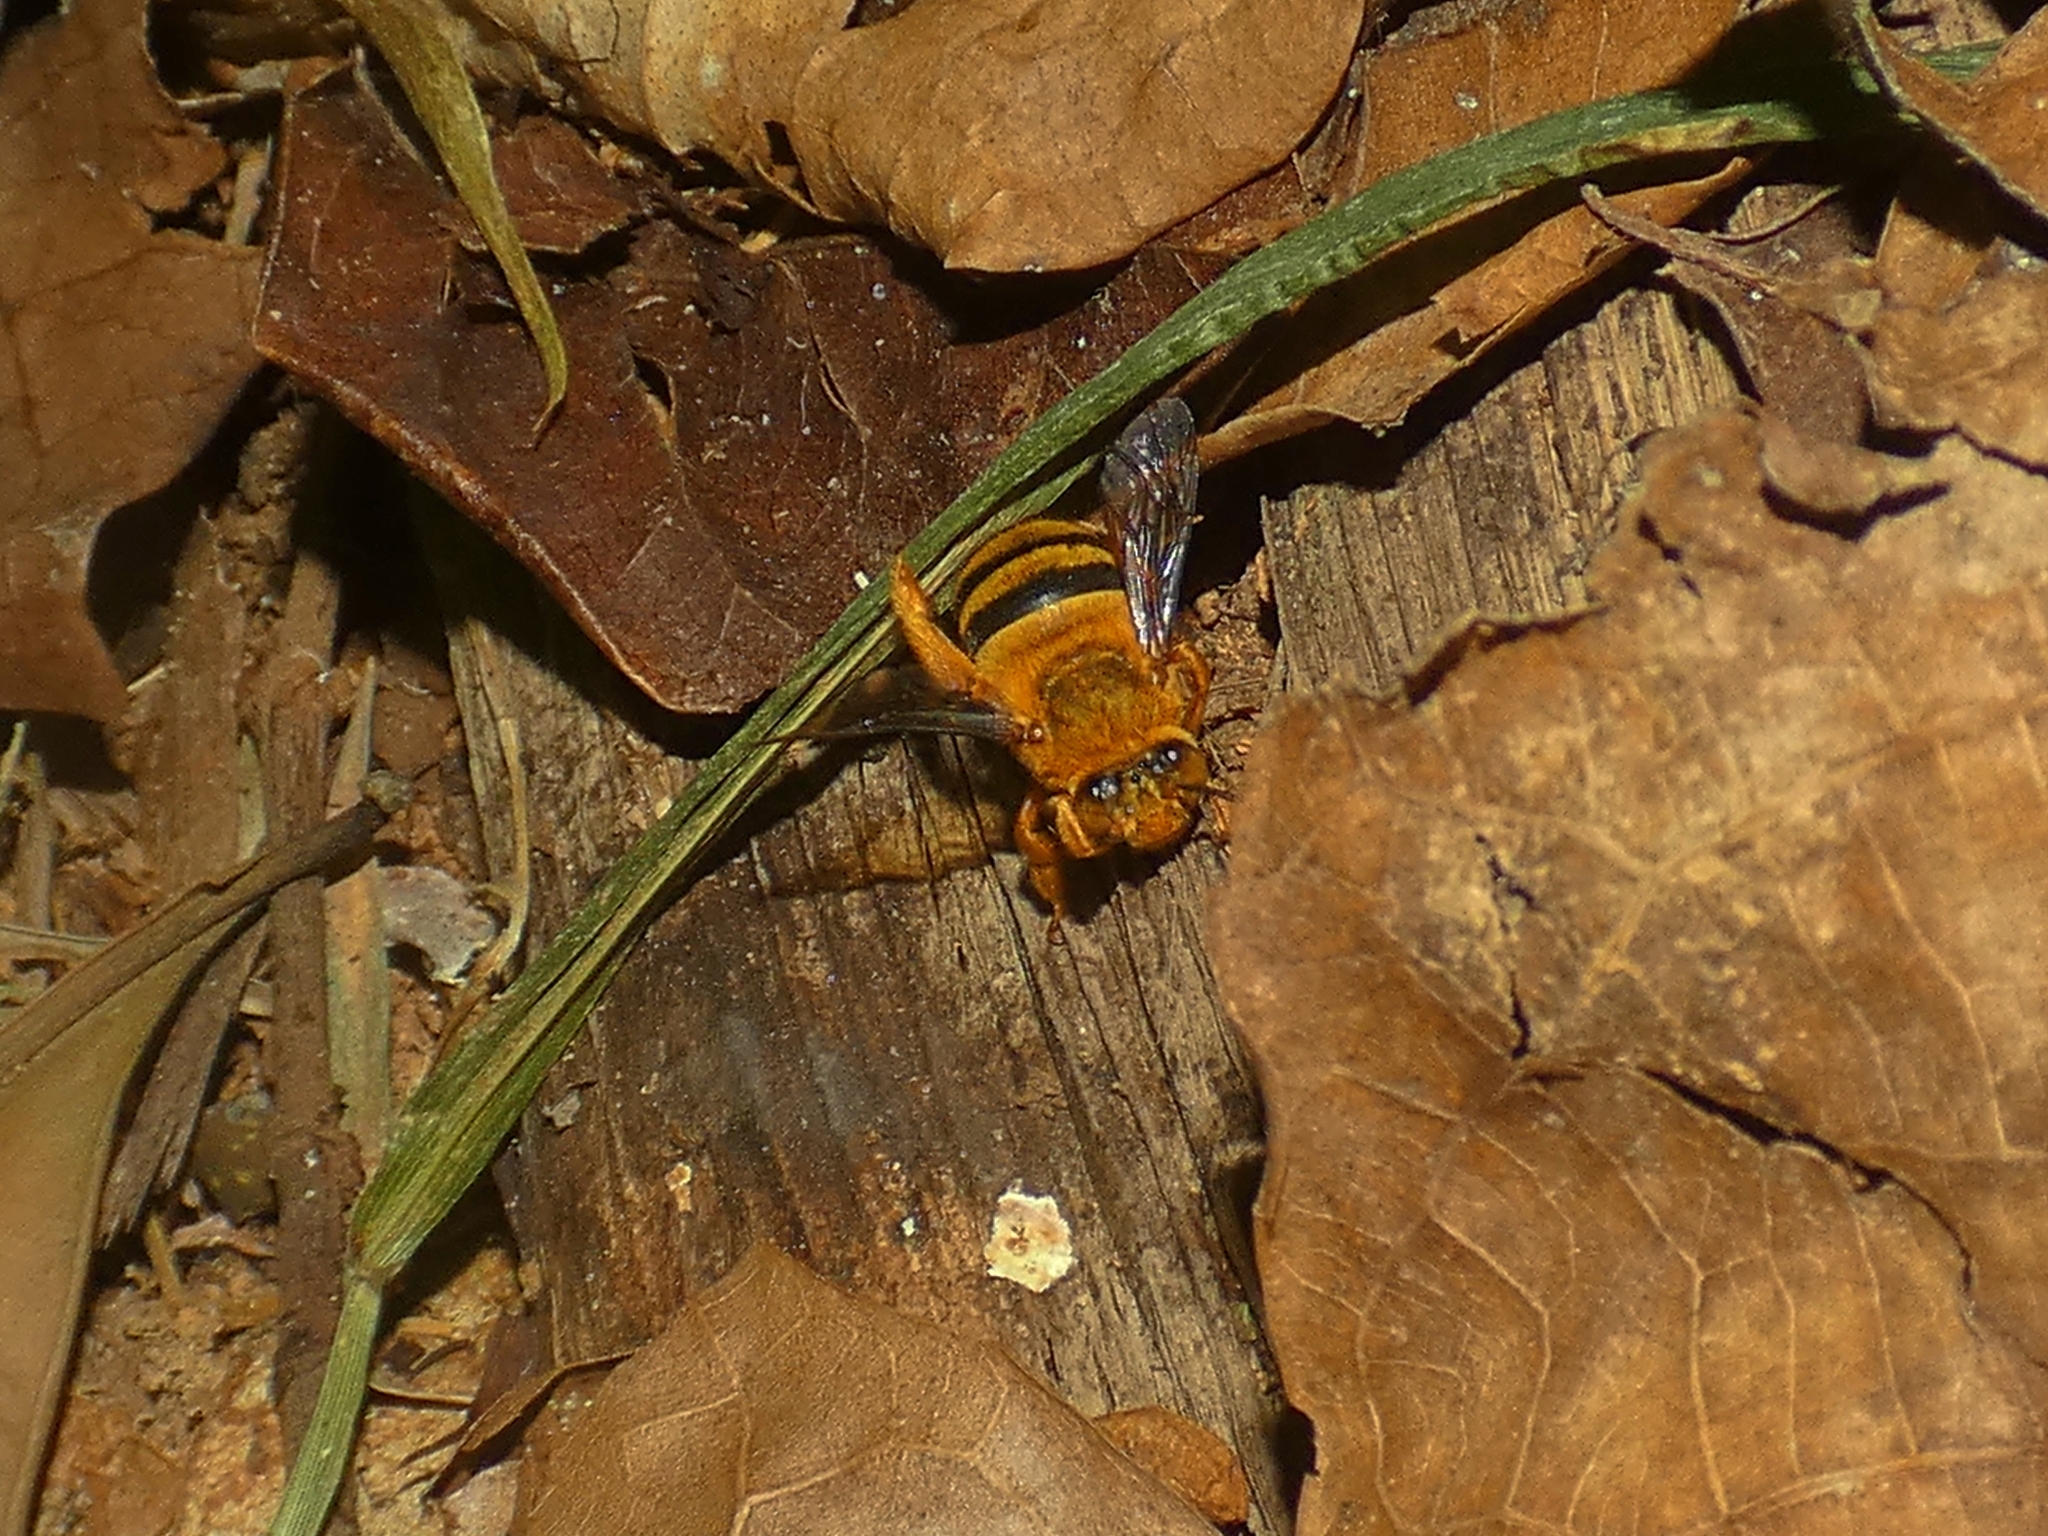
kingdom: Animalia
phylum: Arthropoda
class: Insecta
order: Hymenoptera
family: Apidae
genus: Amegilla
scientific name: Amegilla bombiformis
